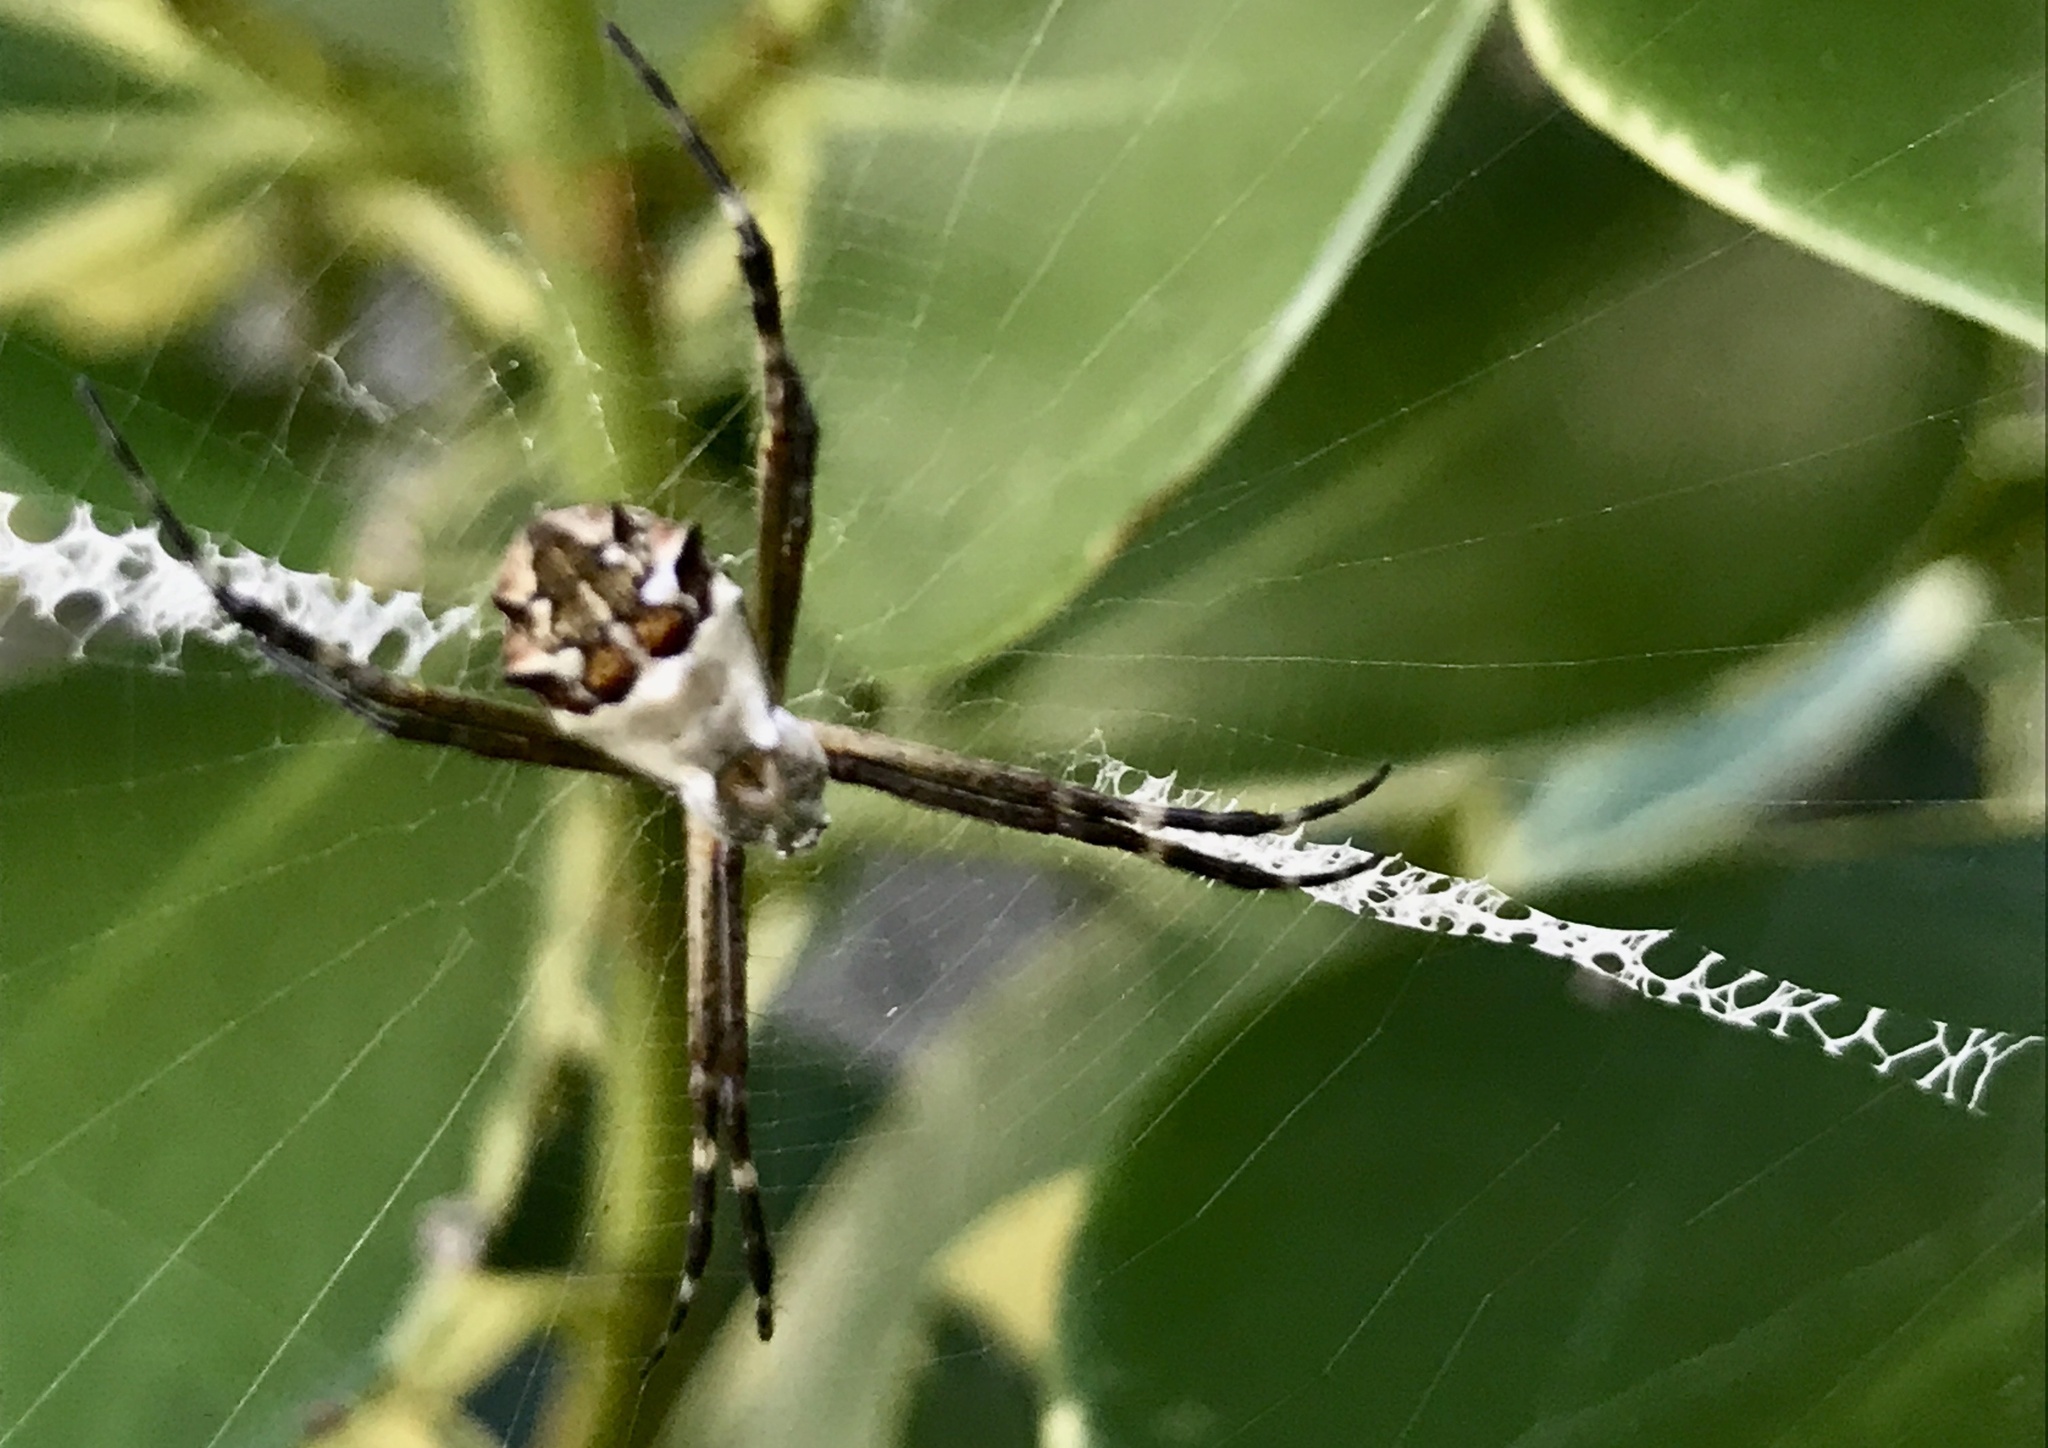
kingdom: Animalia
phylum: Arthropoda
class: Arachnida
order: Araneae
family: Araneidae
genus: Argiope
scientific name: Argiope argentata
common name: Orb weavers
